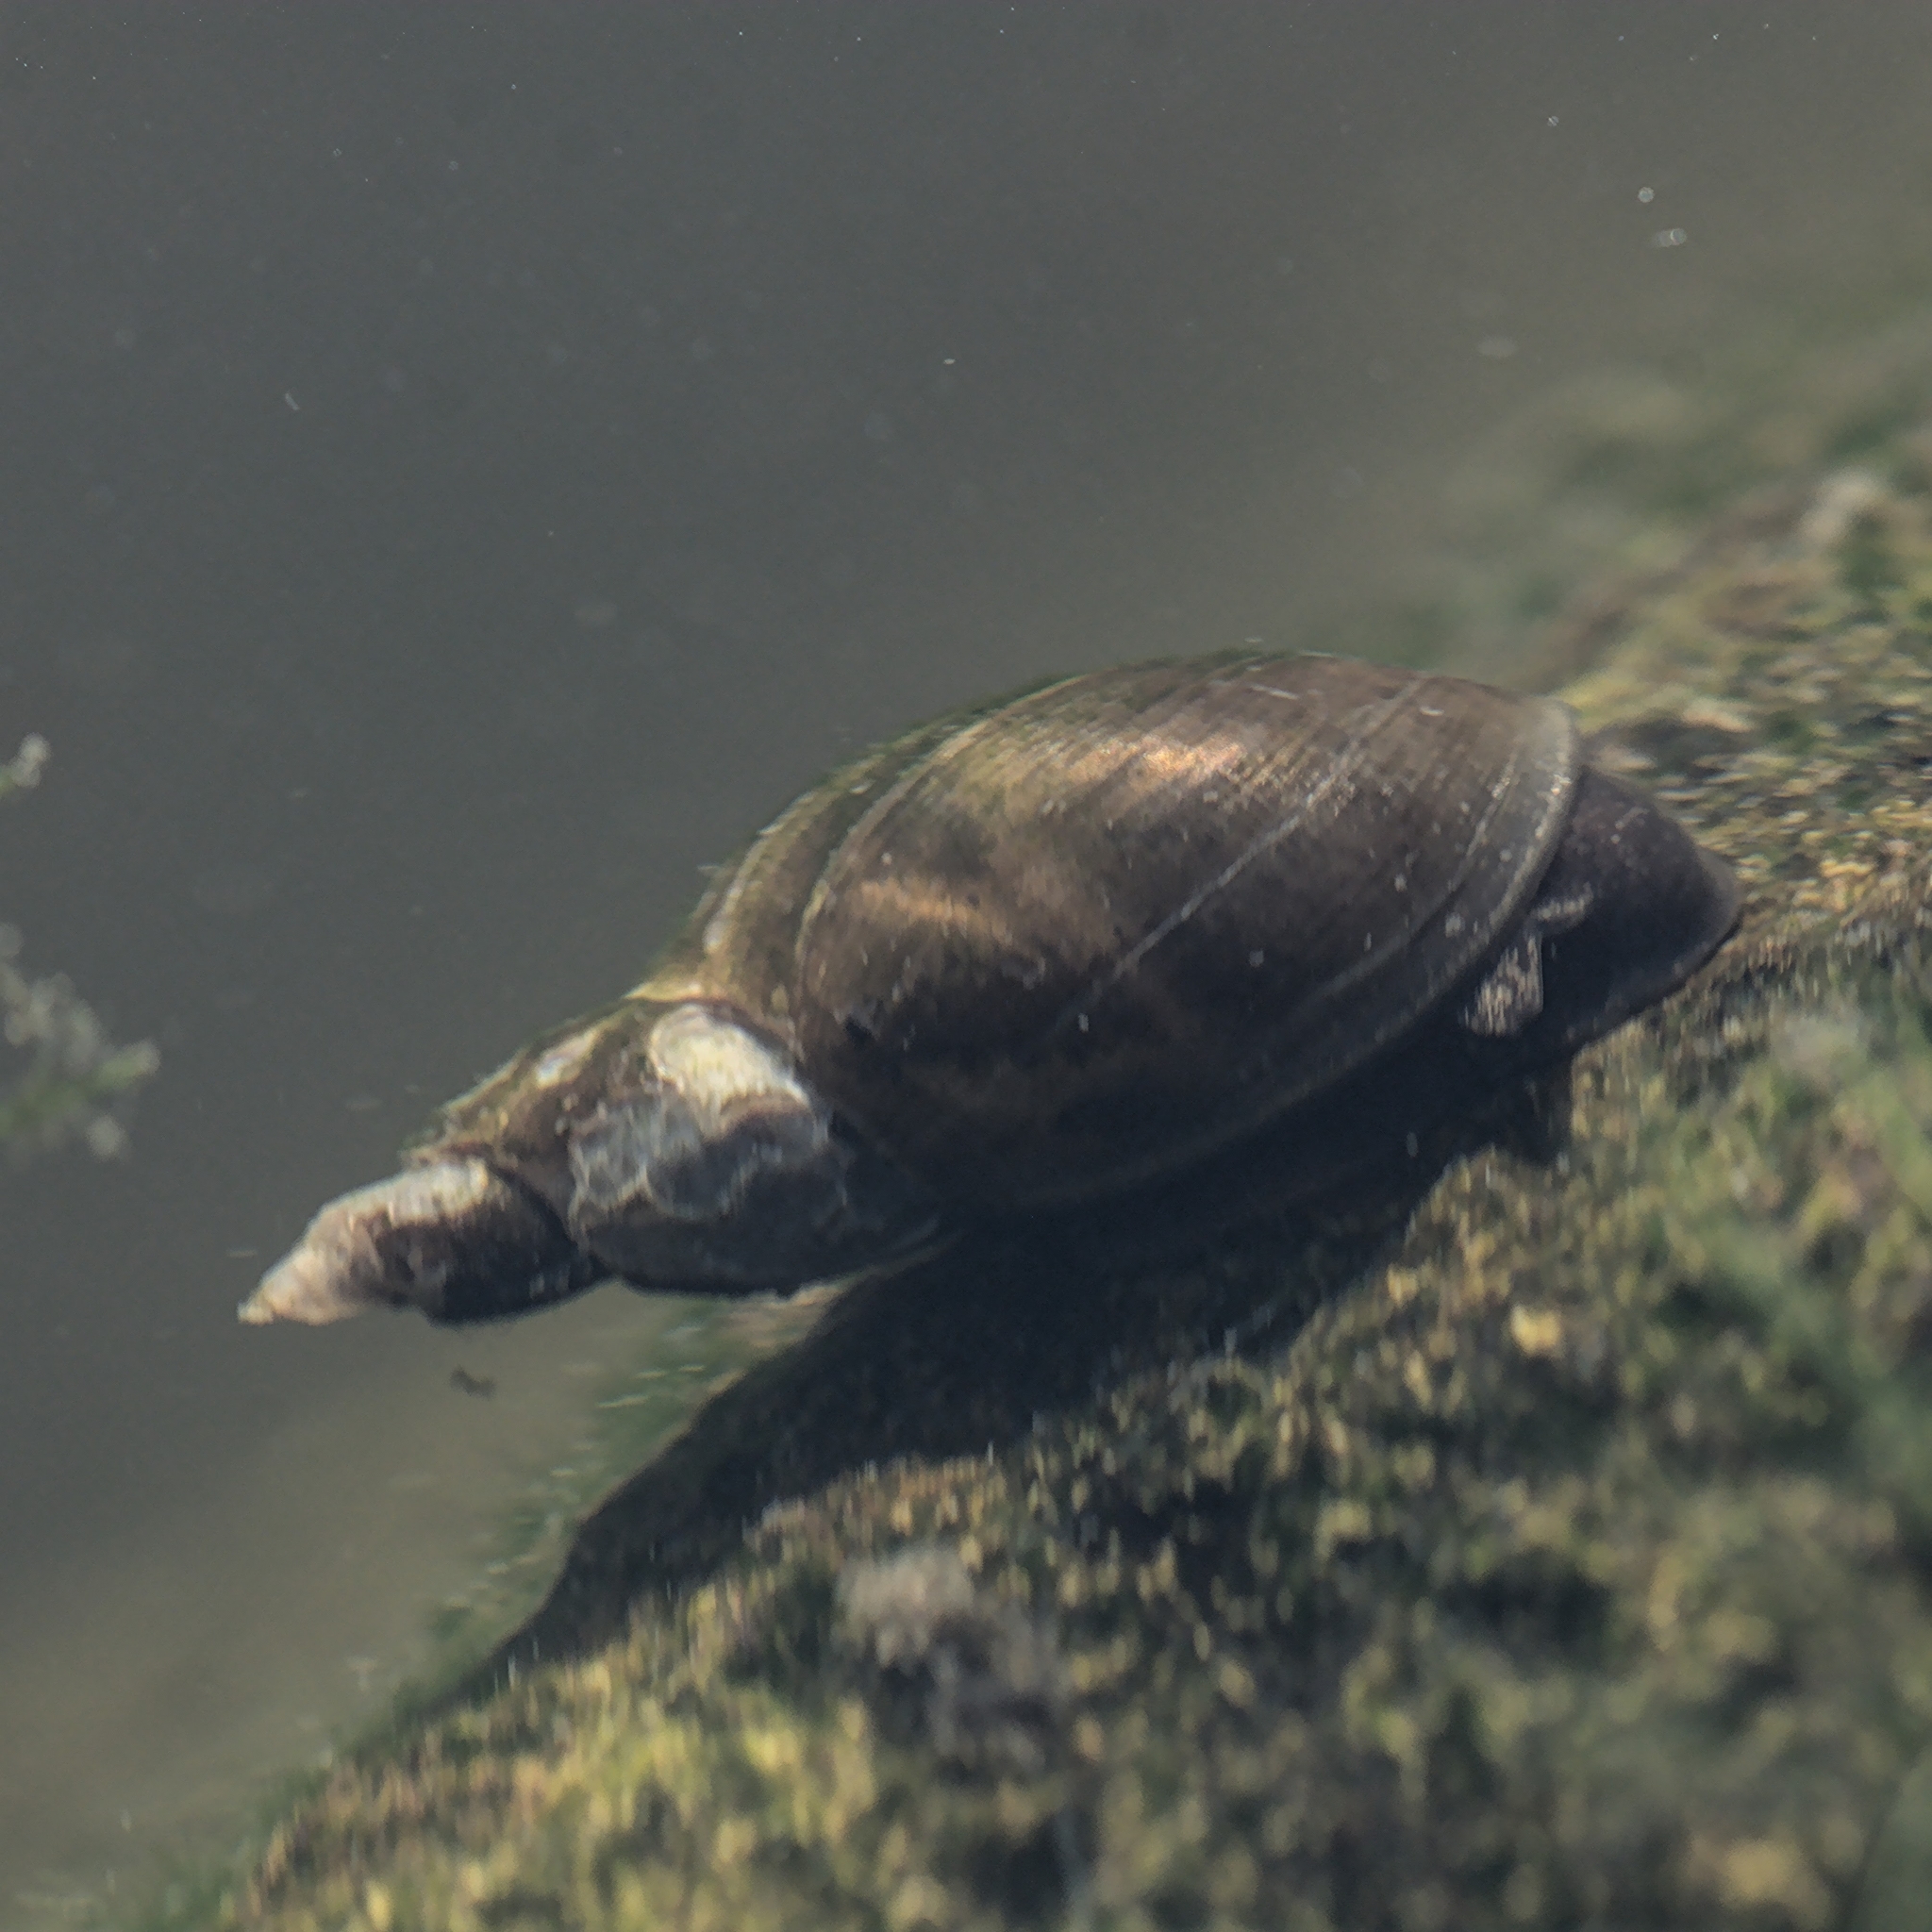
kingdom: Animalia
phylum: Mollusca
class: Gastropoda
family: Lymnaeidae
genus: Lymnaea
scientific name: Lymnaea stagnalis
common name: Great pond snail
